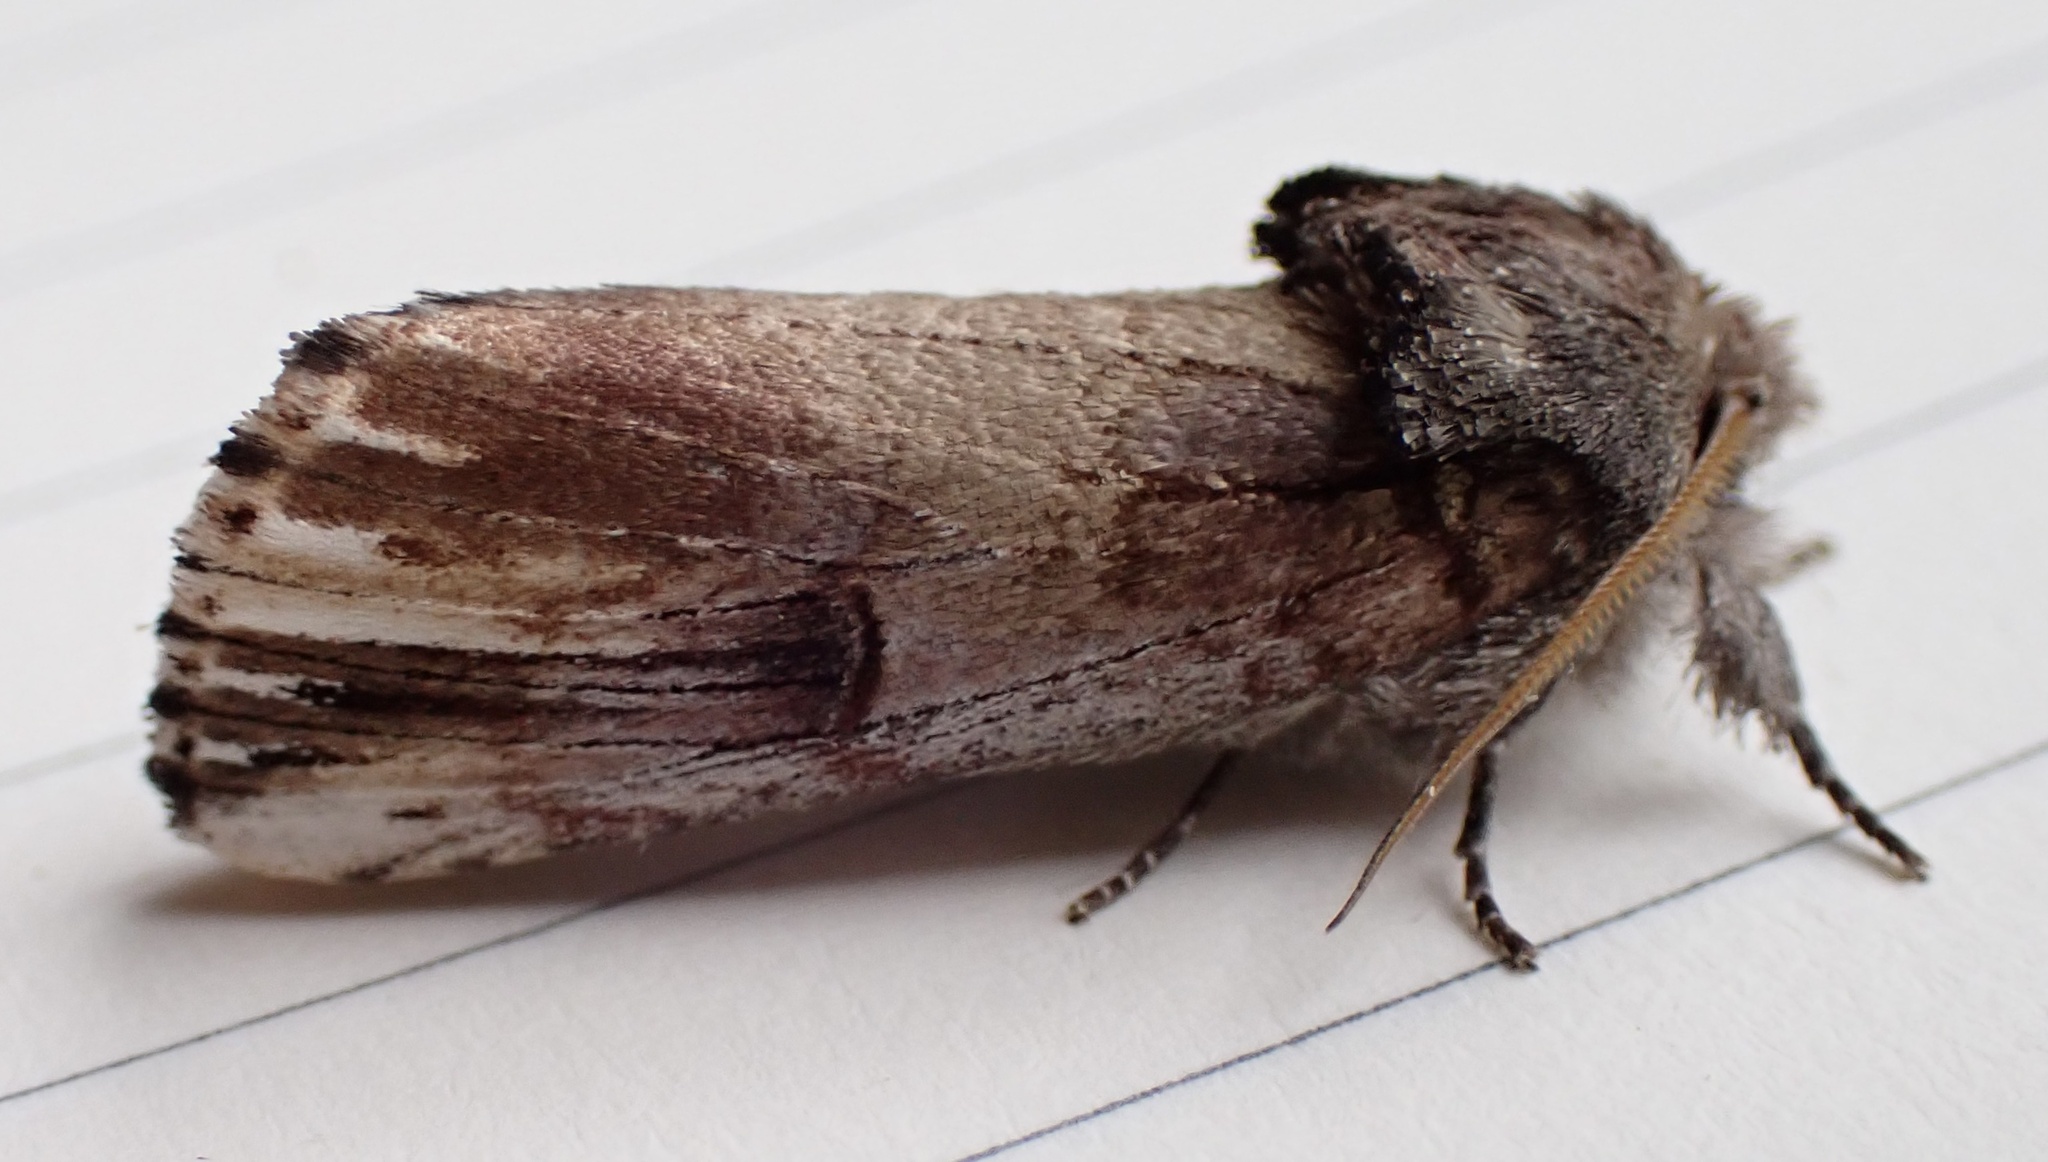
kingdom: Animalia
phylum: Arthropoda
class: Insecta
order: Lepidoptera
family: Notodontidae
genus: Schizura
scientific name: Schizura badia
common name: Chestnut schizura
